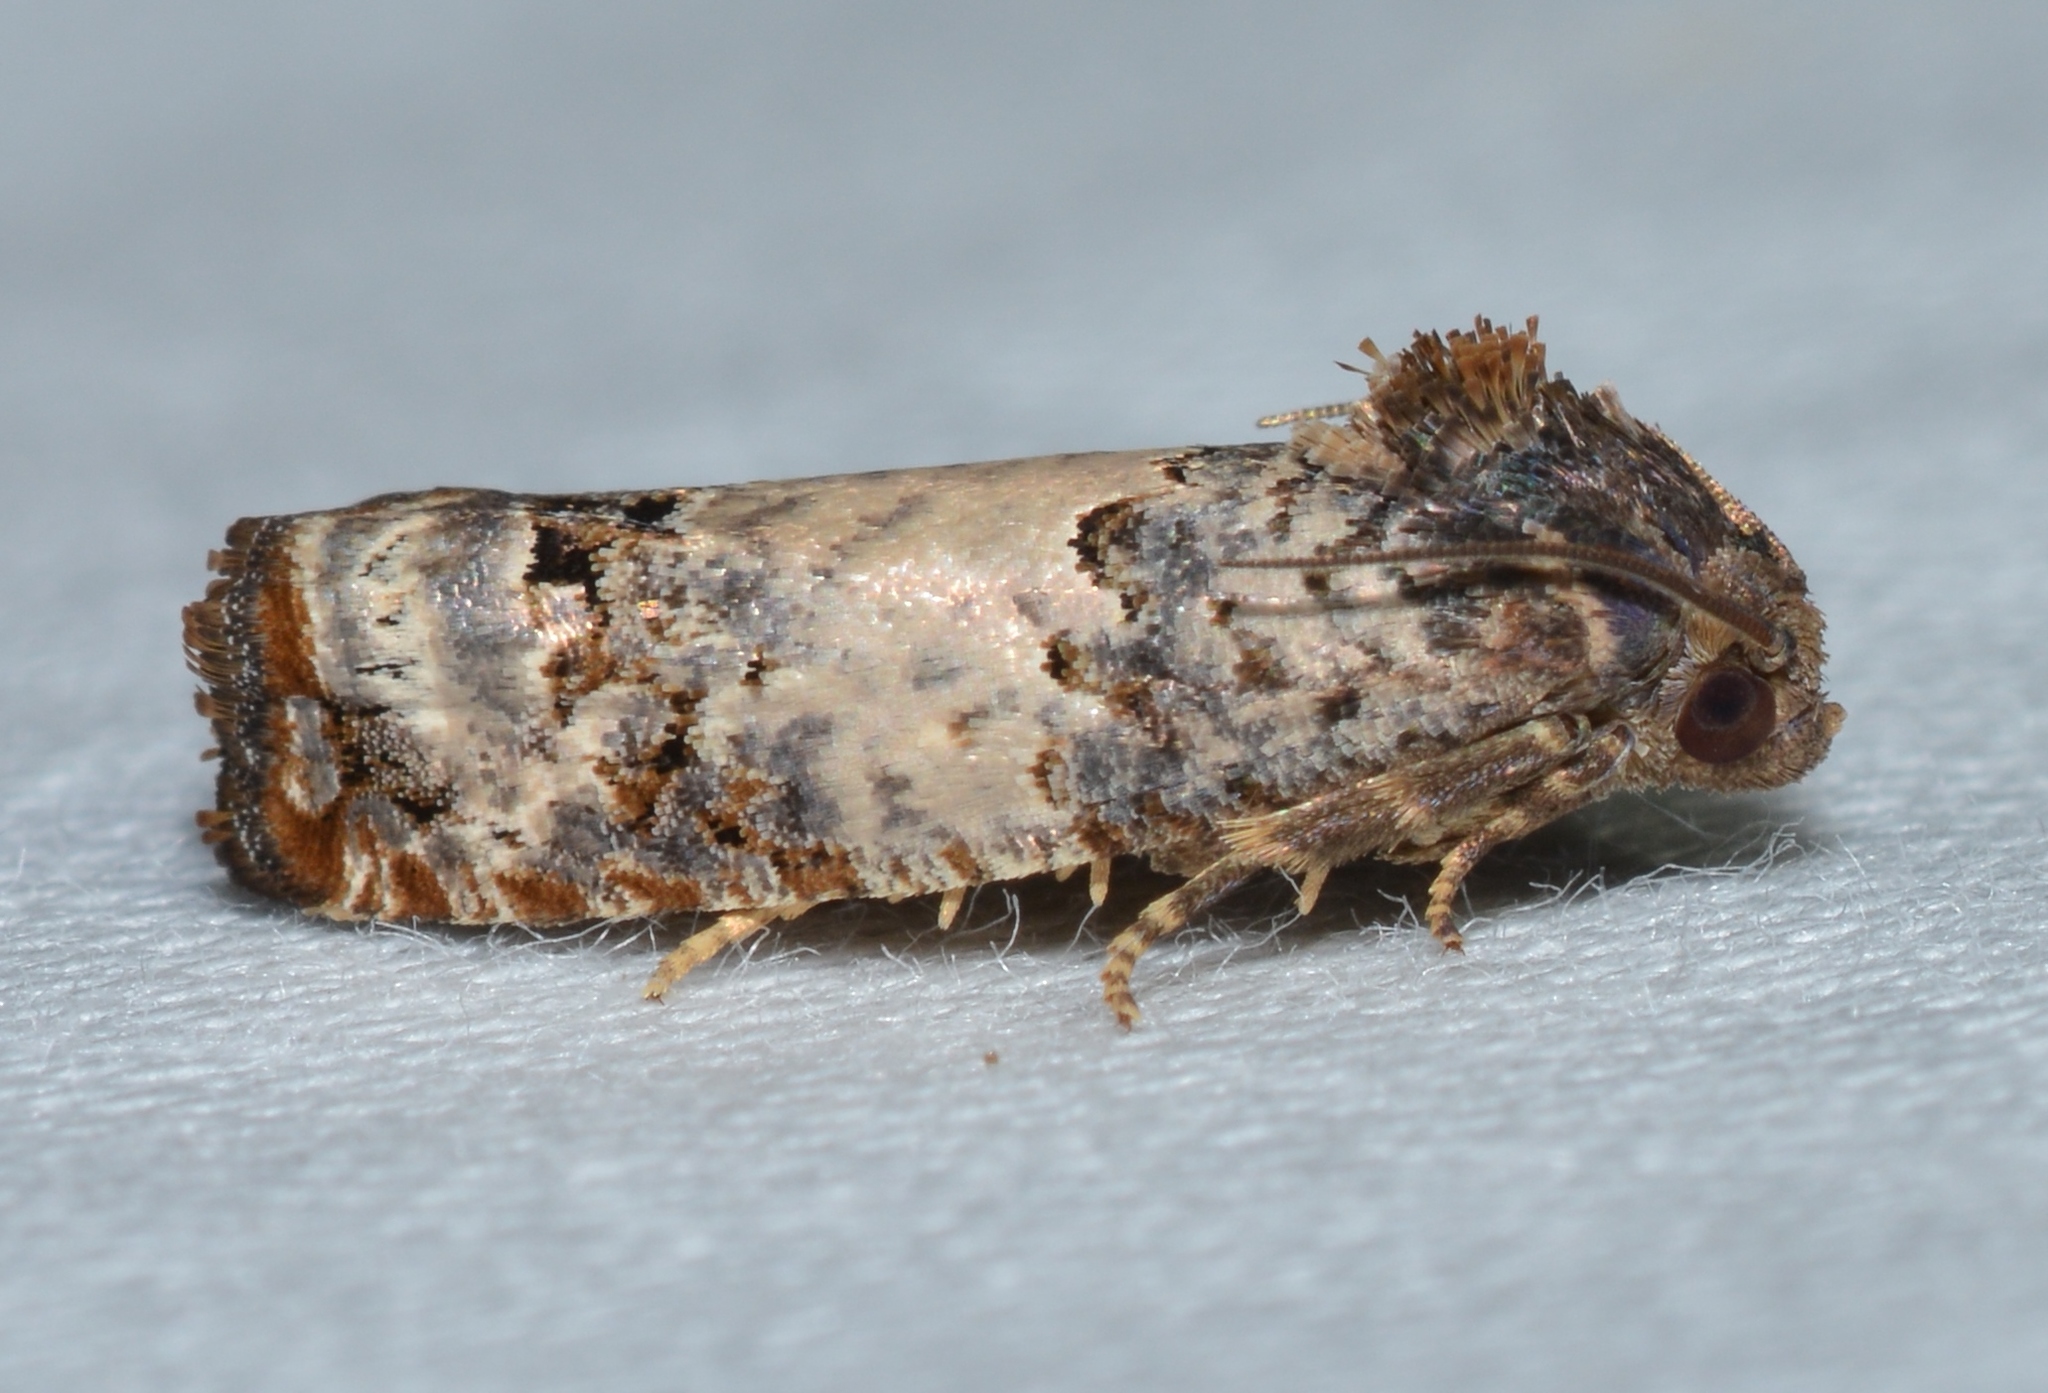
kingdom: Animalia
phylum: Arthropoda
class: Insecta
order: Lepidoptera
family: Tortricidae
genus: Epiblema
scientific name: Epiblema carolinana
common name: Gray-blotched epiblema moth
